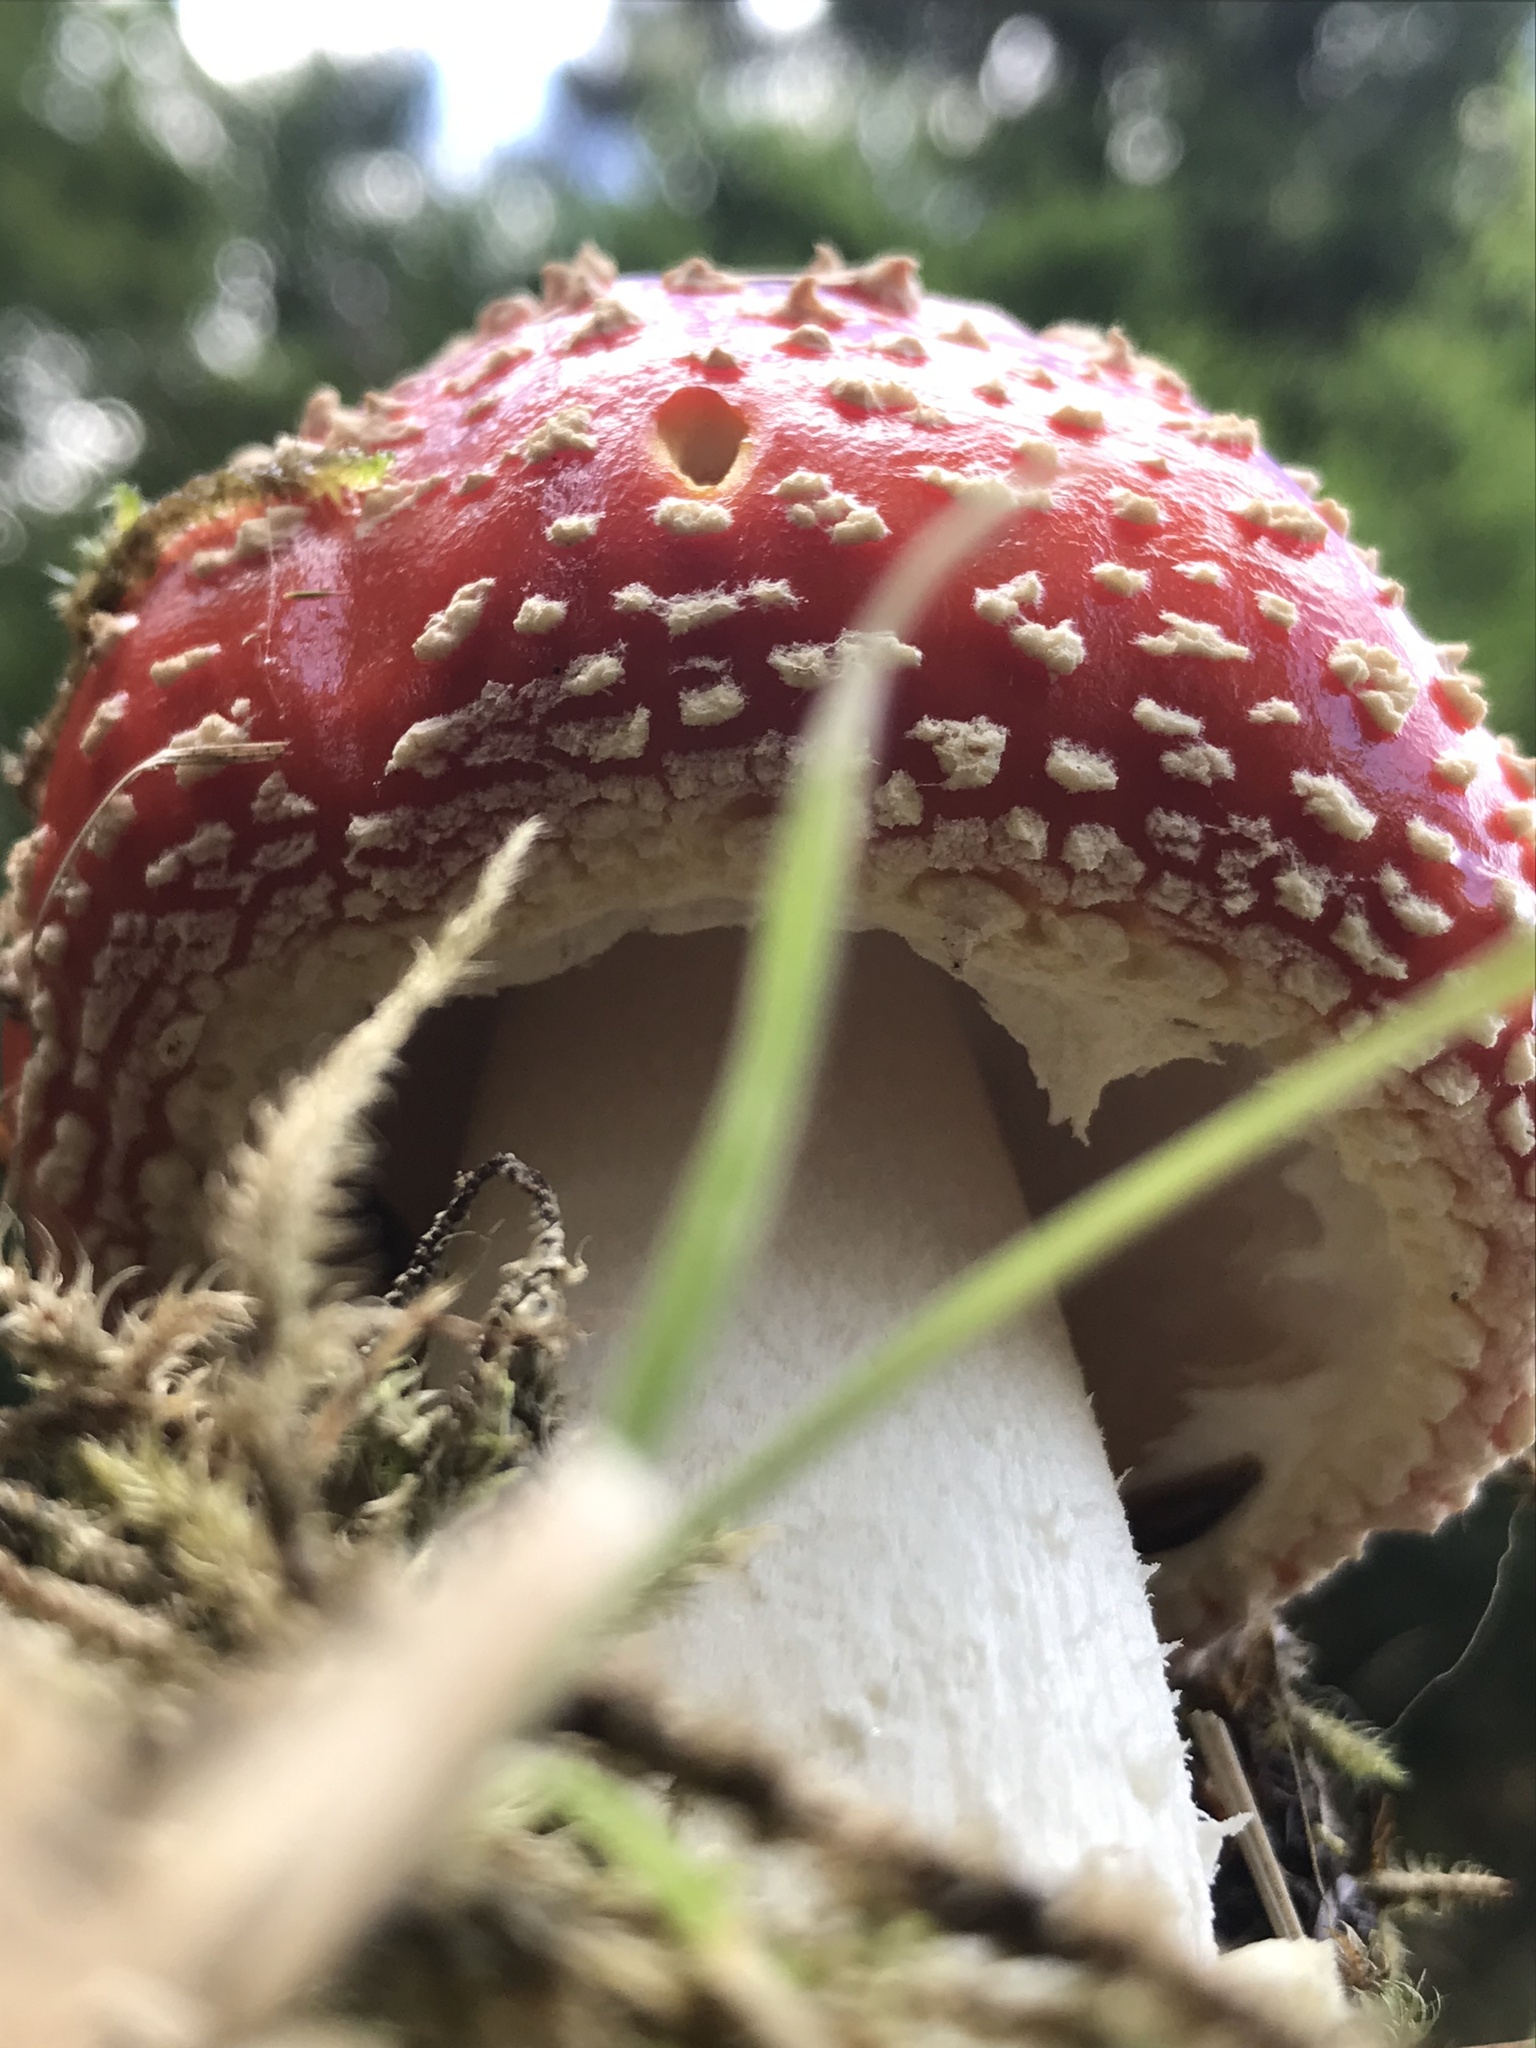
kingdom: Fungi
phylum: Basidiomycota
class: Agaricomycetes
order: Agaricales
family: Amanitaceae
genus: Amanita
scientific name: Amanita muscaria
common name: Fly agaric
